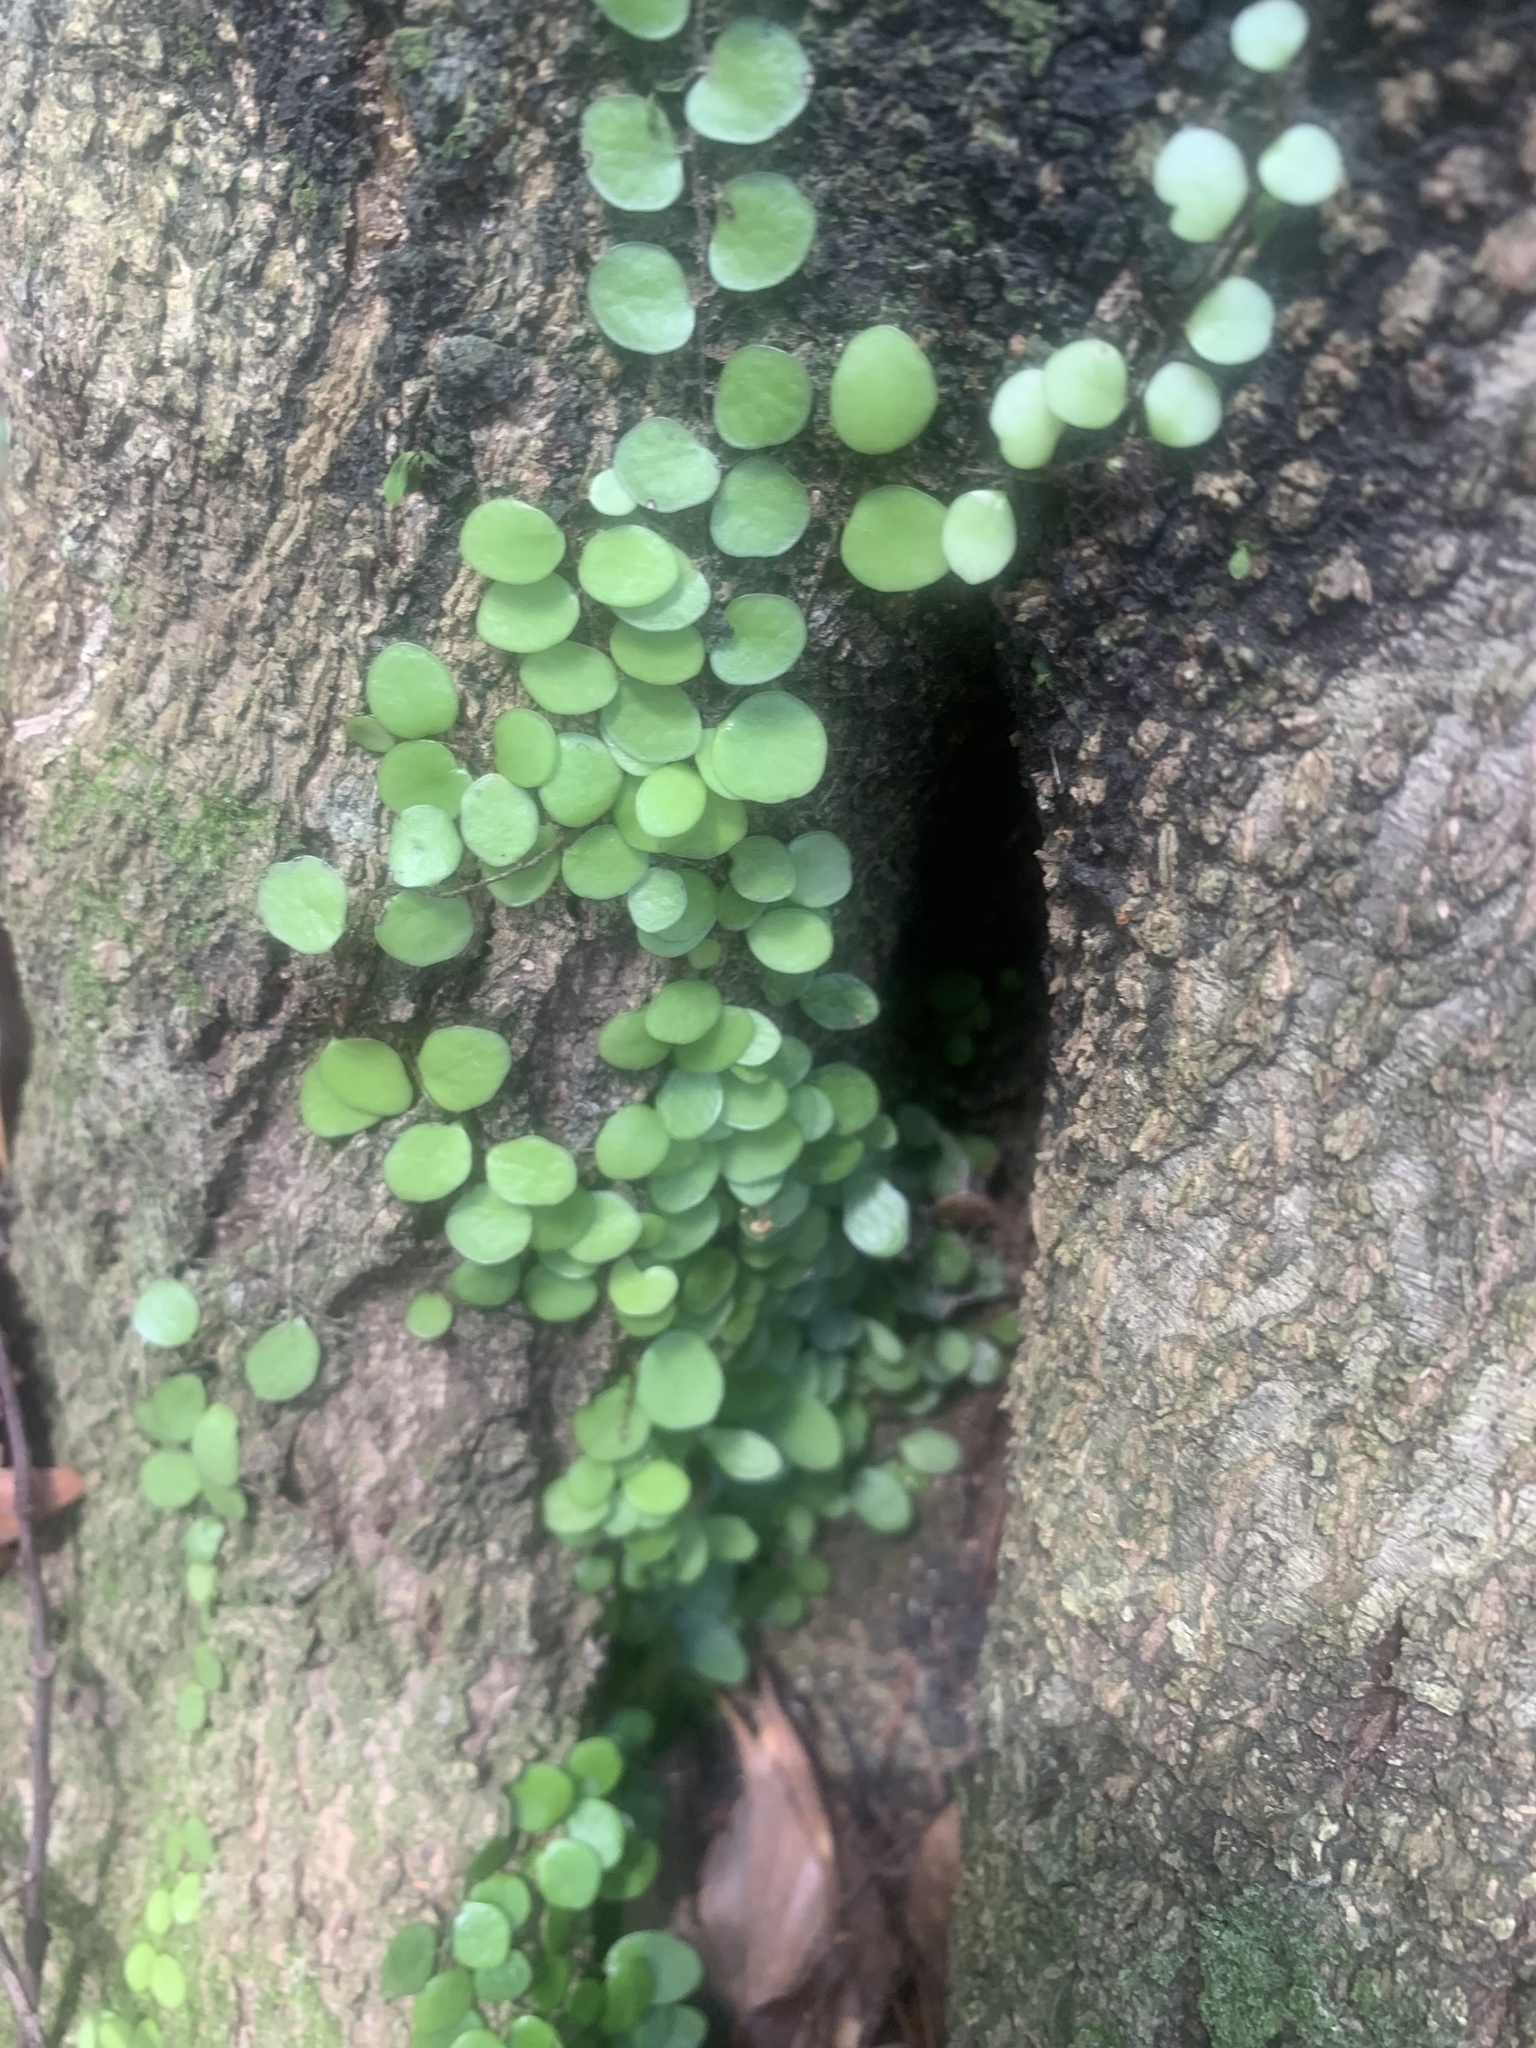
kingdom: Plantae
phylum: Tracheophyta
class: Polypodiopsida
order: Polypodiales
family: Polypodiaceae
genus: Lepisorus
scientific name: Lepisorus microphyllus
